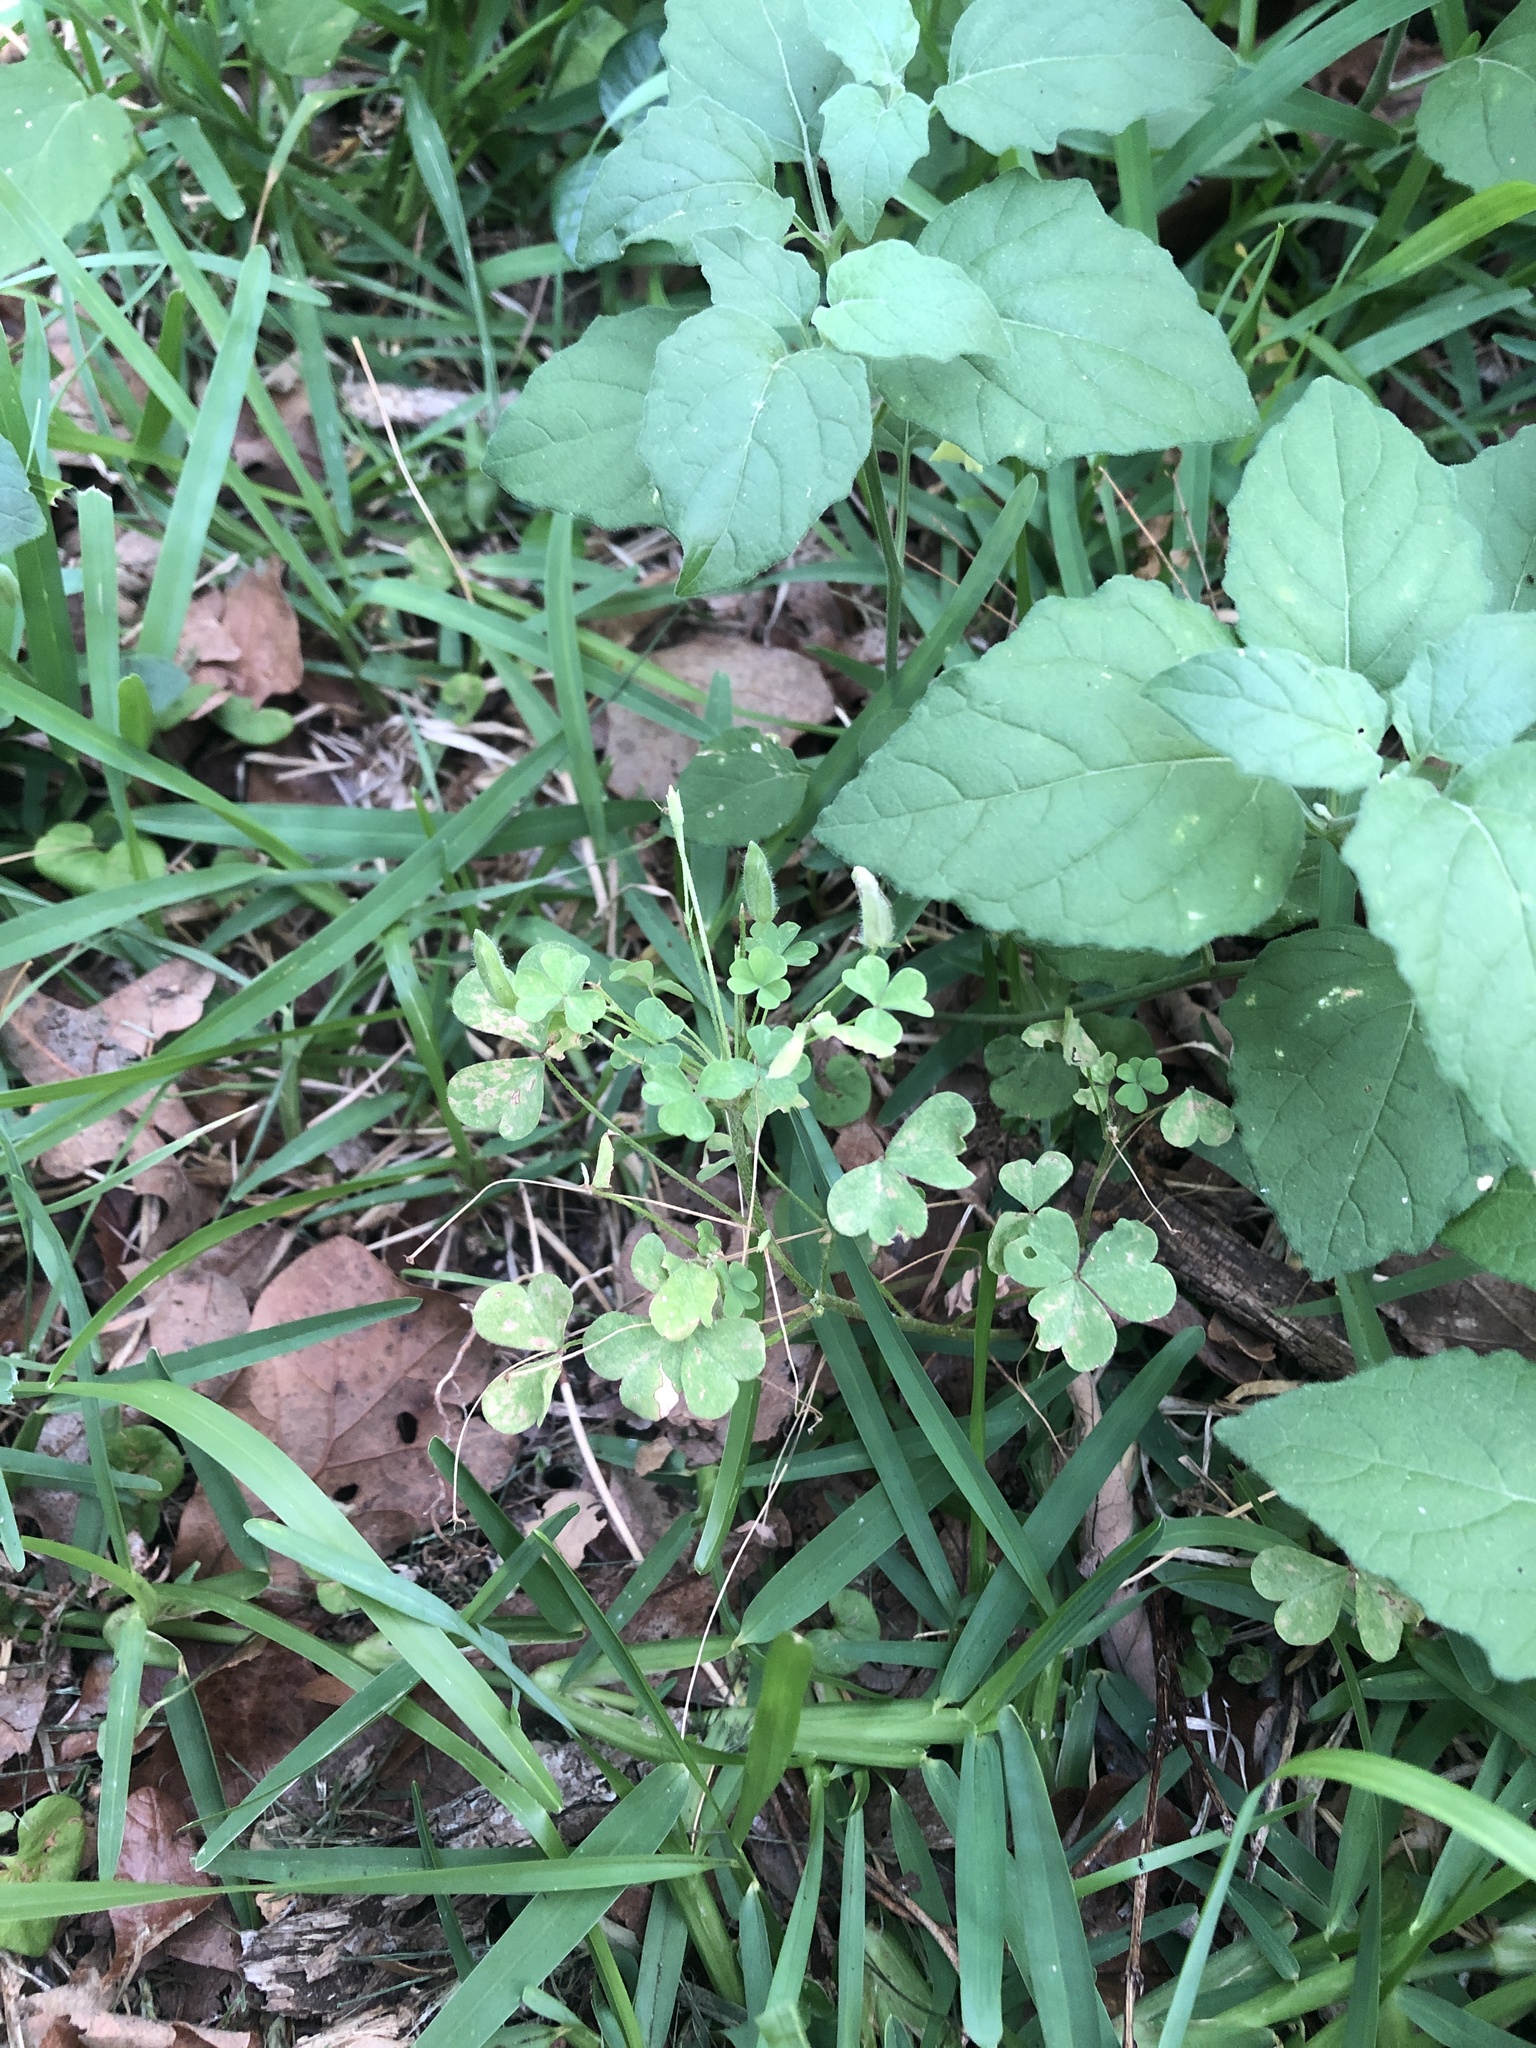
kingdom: Plantae
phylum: Tracheophyta
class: Magnoliopsida
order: Oxalidales
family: Oxalidaceae
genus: Oxalis
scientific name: Oxalis dillenii
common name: Sussex yellow-sorrel
